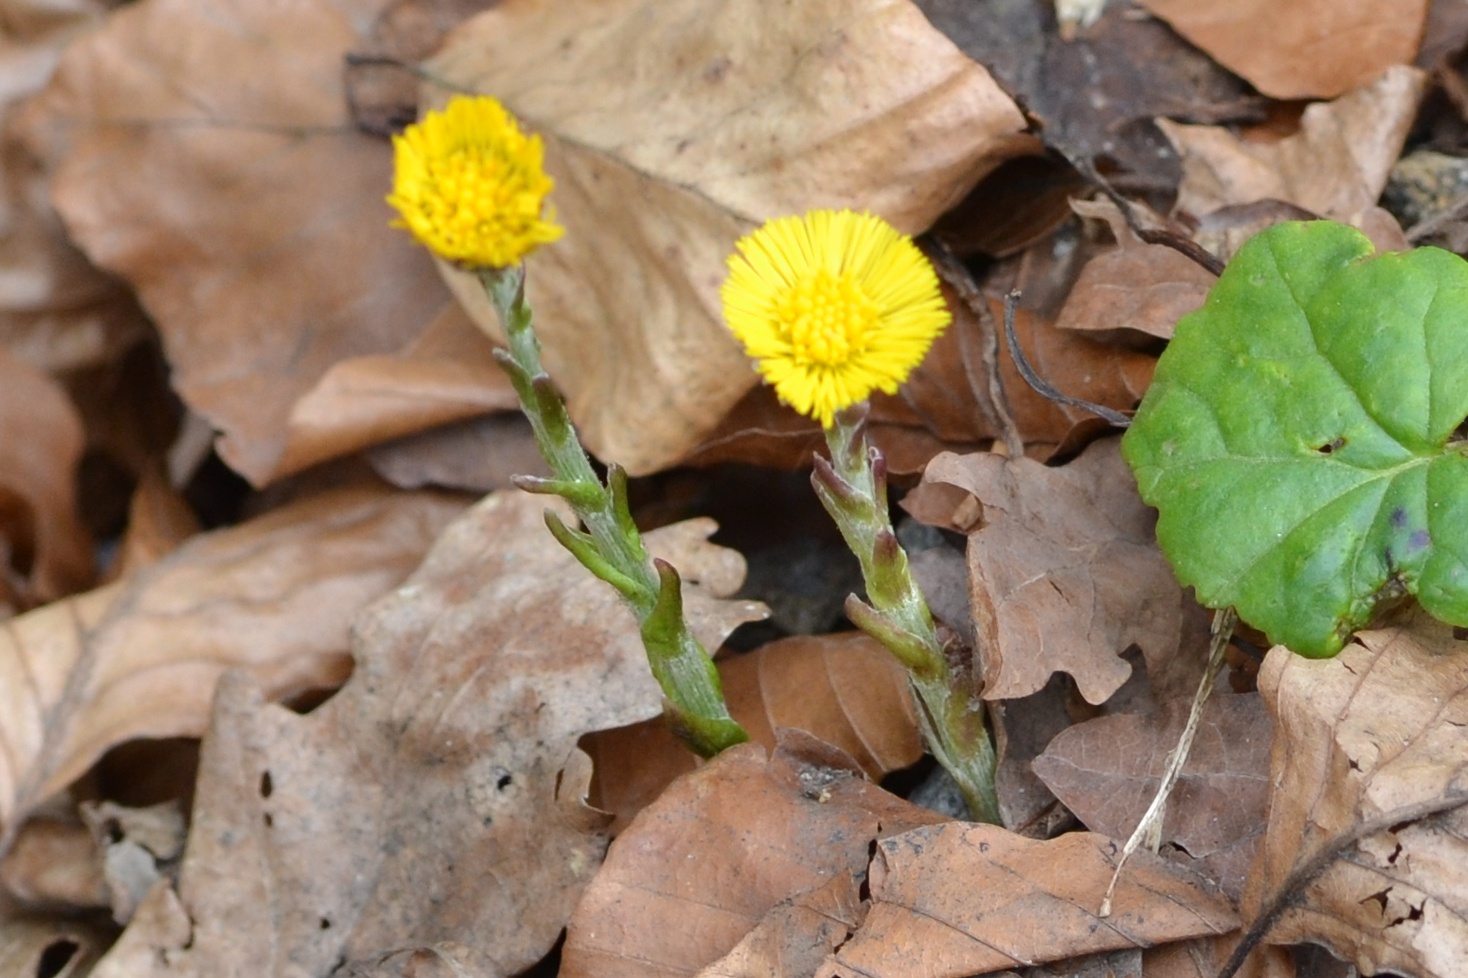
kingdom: Plantae
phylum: Tracheophyta
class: Magnoliopsida
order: Asterales
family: Asteraceae
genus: Tussilago
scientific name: Tussilago farfara
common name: Coltsfoot
